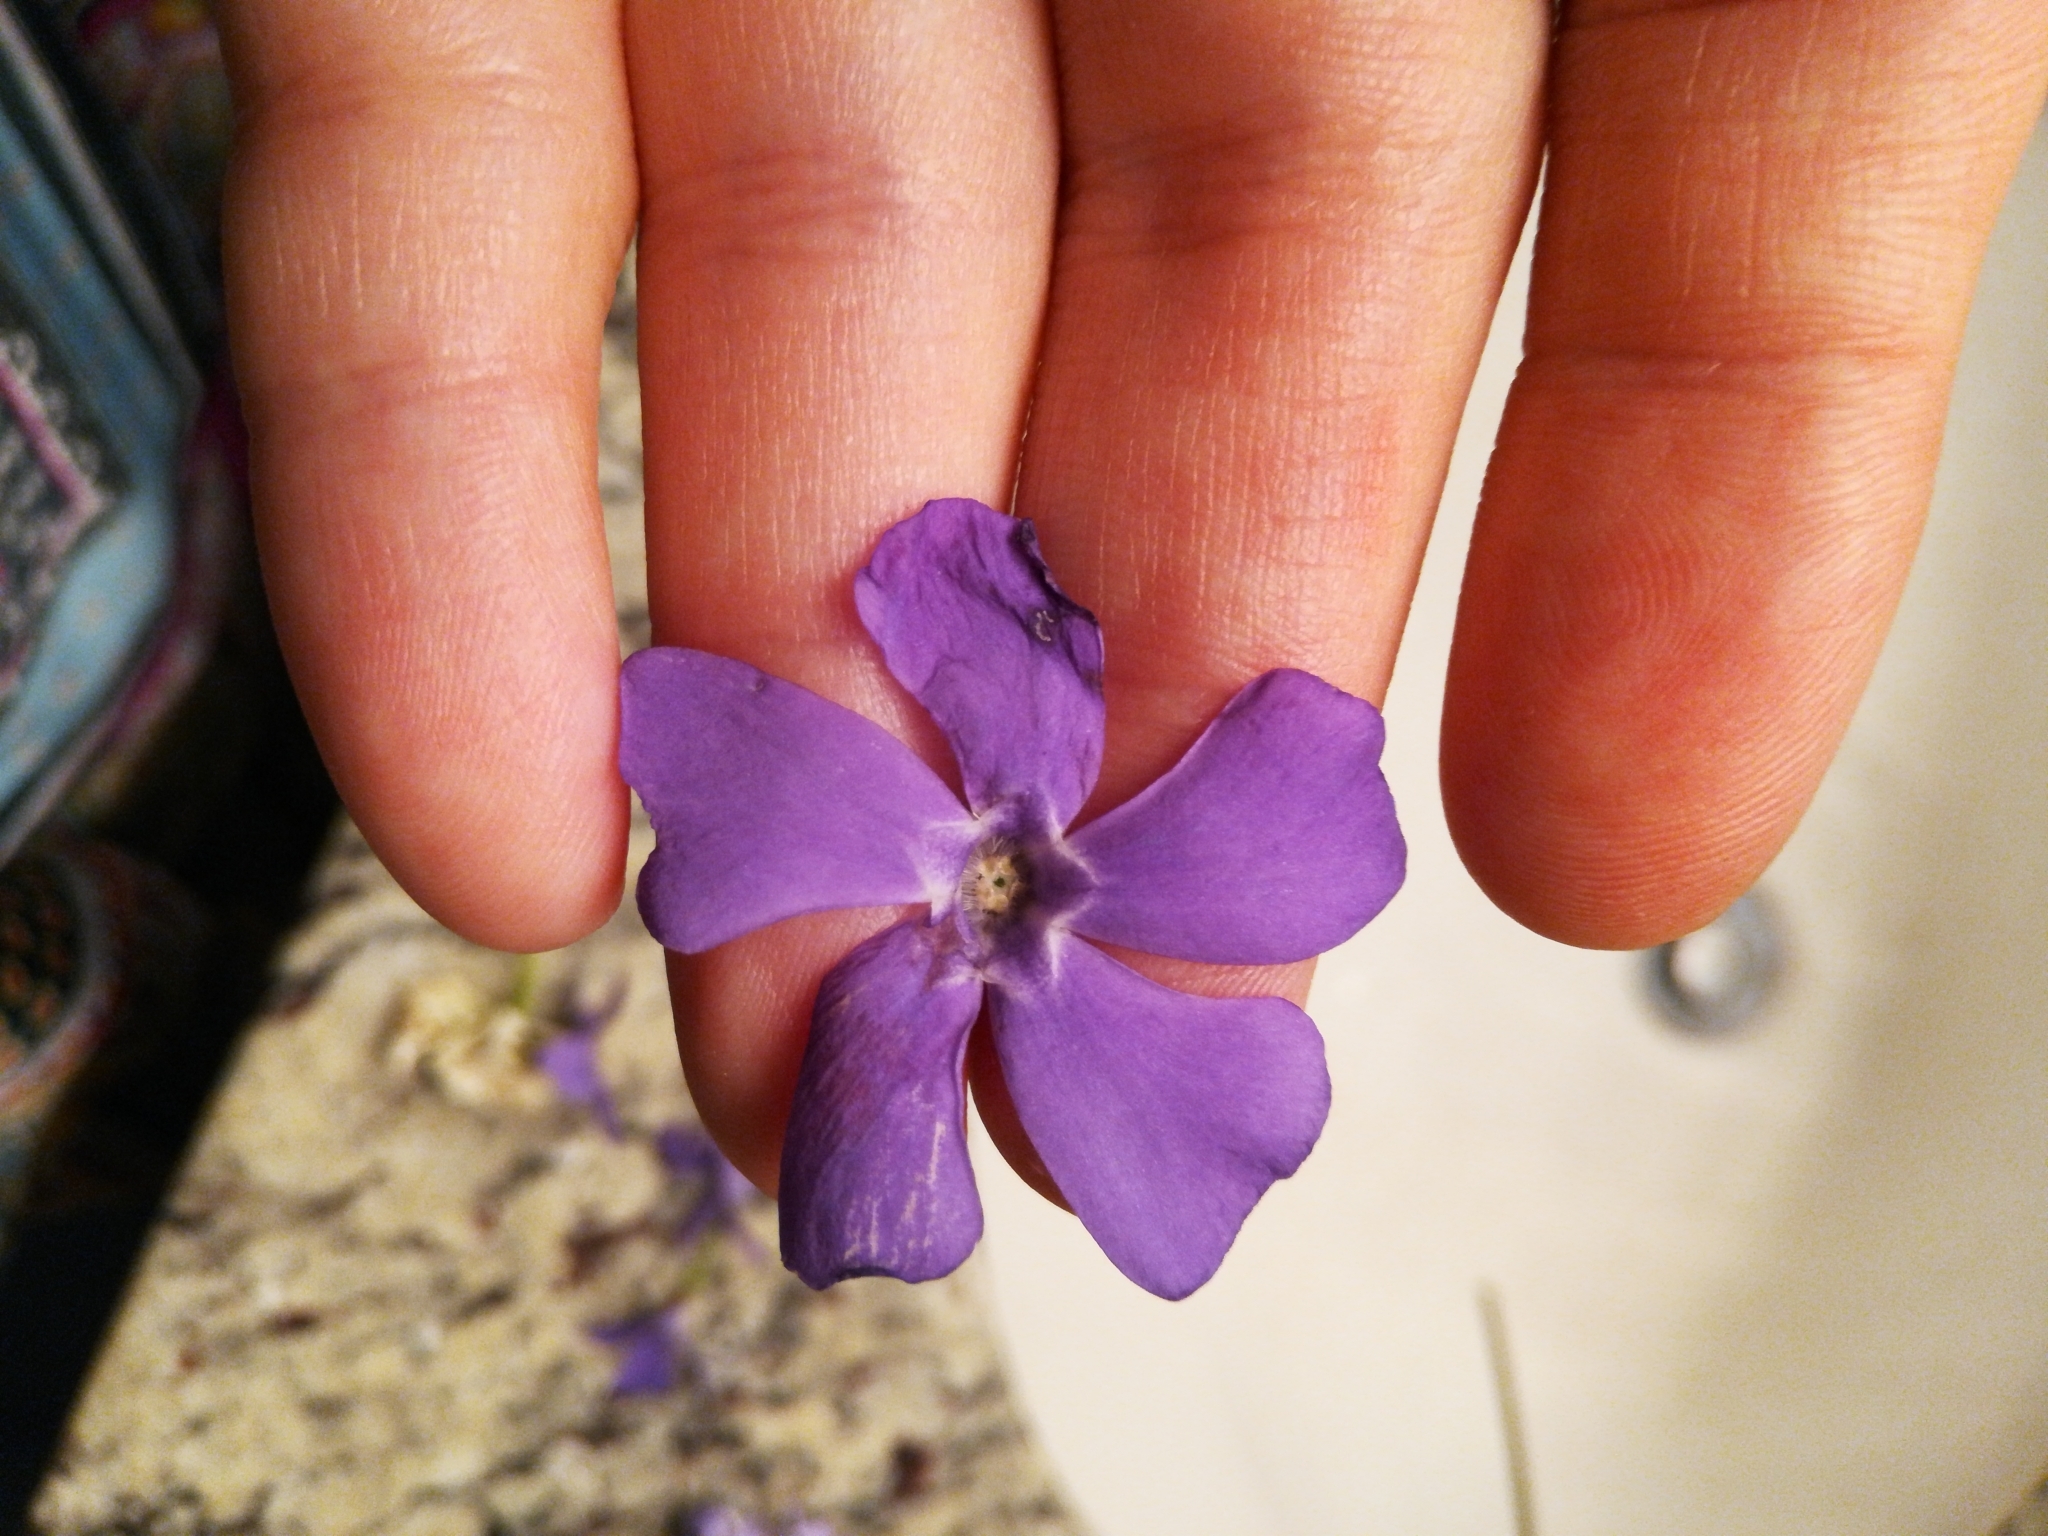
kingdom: Plantae
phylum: Tracheophyta
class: Magnoliopsida
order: Gentianales
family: Apocynaceae
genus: Vinca
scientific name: Vinca
